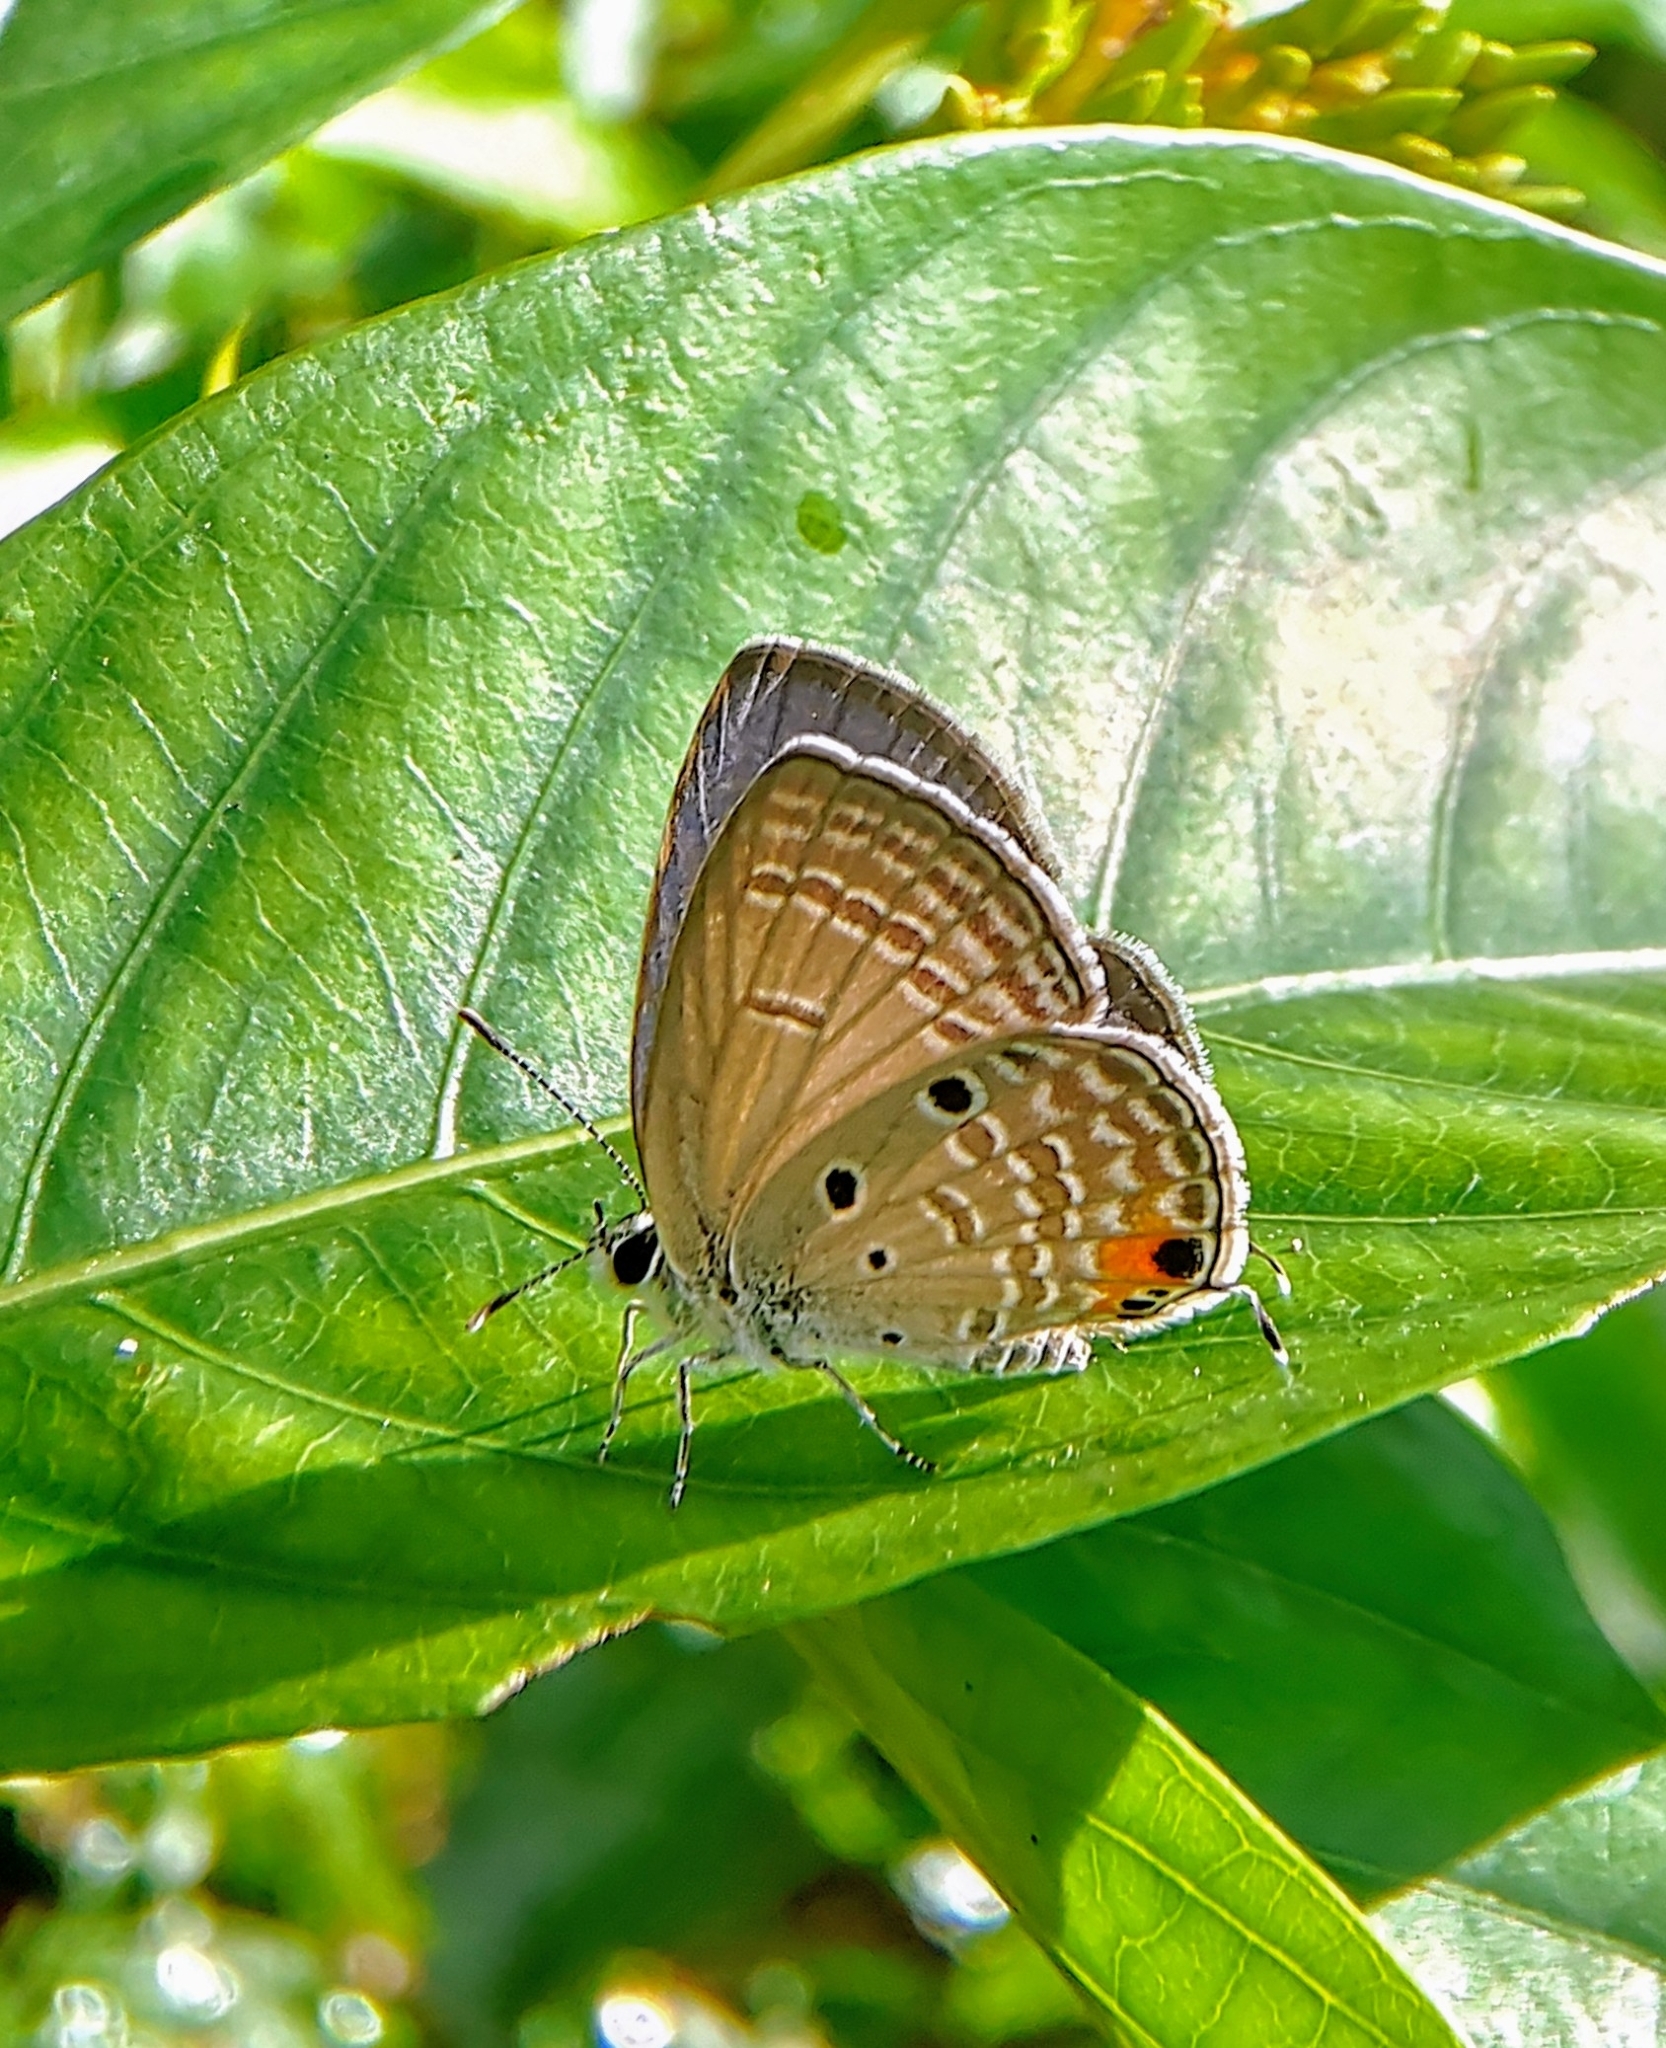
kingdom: Animalia
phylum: Arthropoda
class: Insecta
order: Lepidoptera
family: Lycaenidae
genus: Luthrodes
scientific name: Luthrodes pandava
